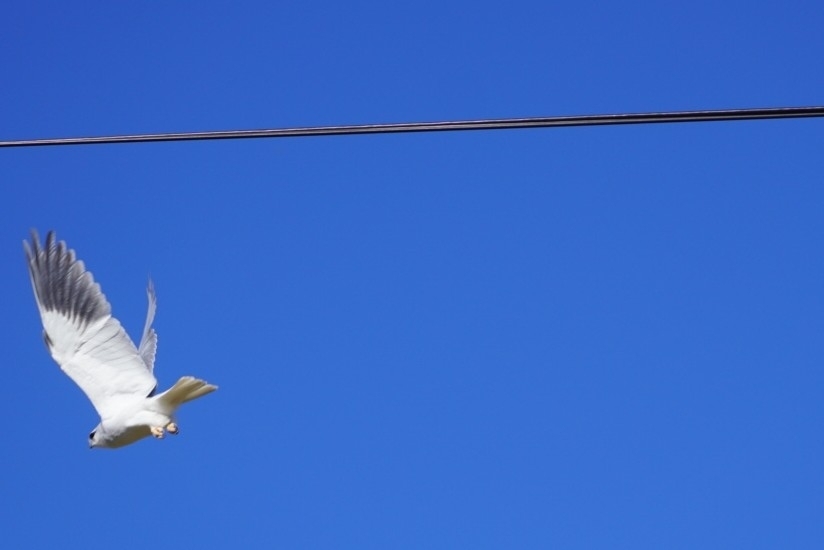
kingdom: Animalia
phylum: Chordata
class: Aves
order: Accipitriformes
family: Accipitridae
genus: Elanus
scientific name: Elanus caeruleus
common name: Black-winged kite
